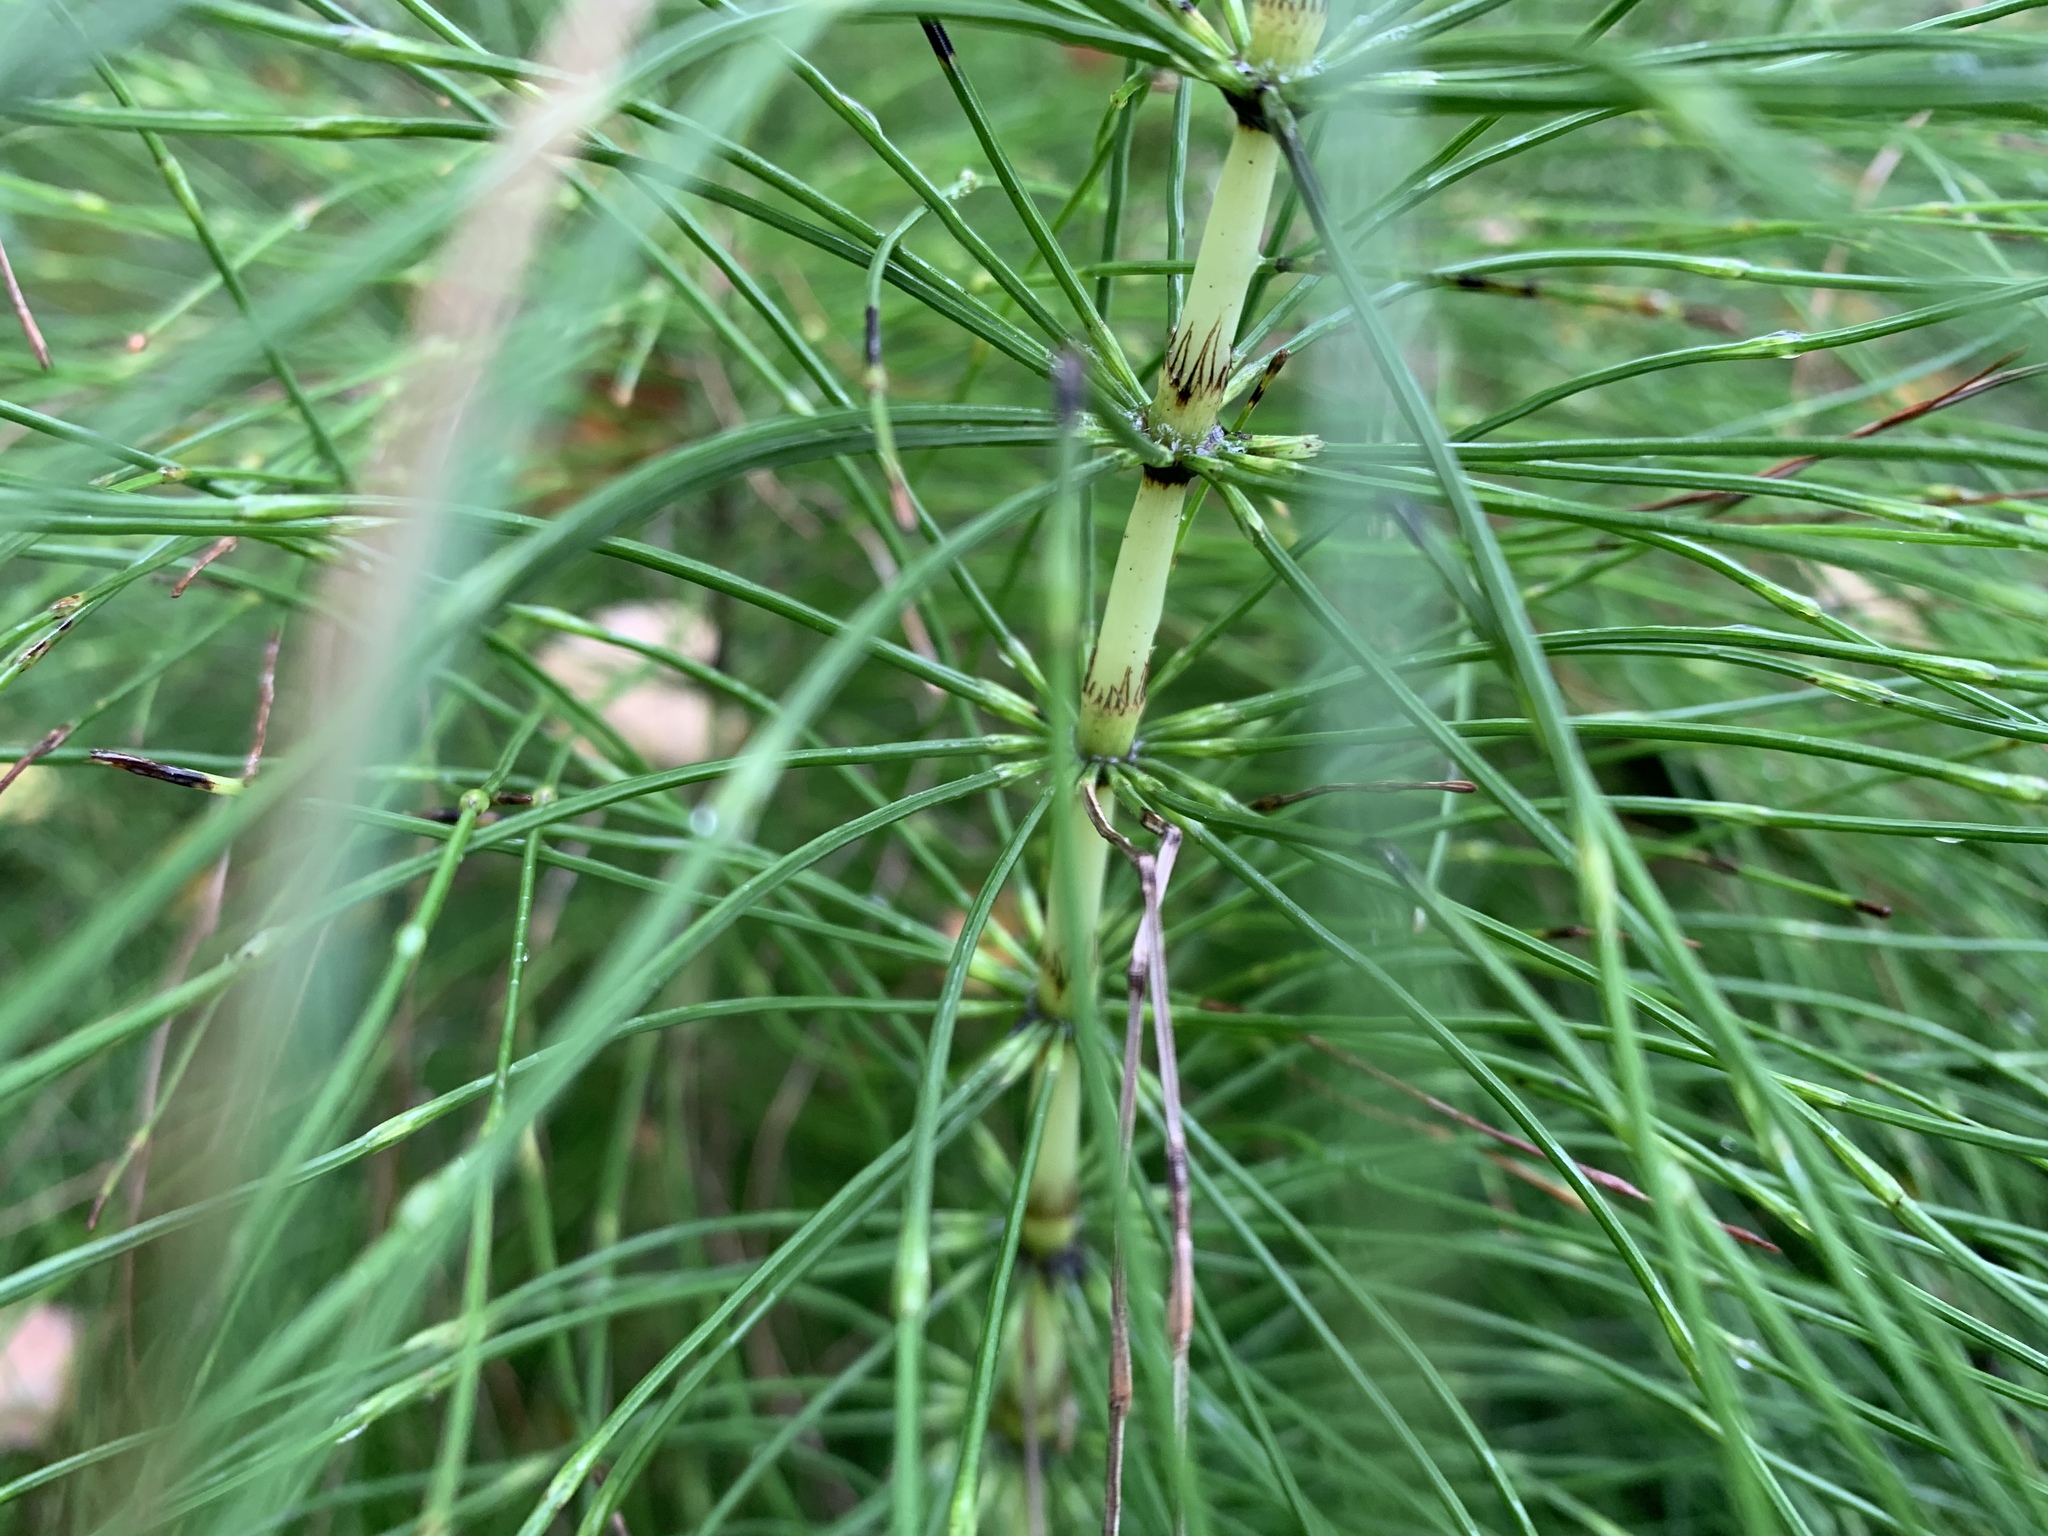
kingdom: Plantae
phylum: Tracheophyta
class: Polypodiopsida
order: Equisetales
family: Equisetaceae
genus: Equisetum
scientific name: Equisetum telmateia
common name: Great horsetail
